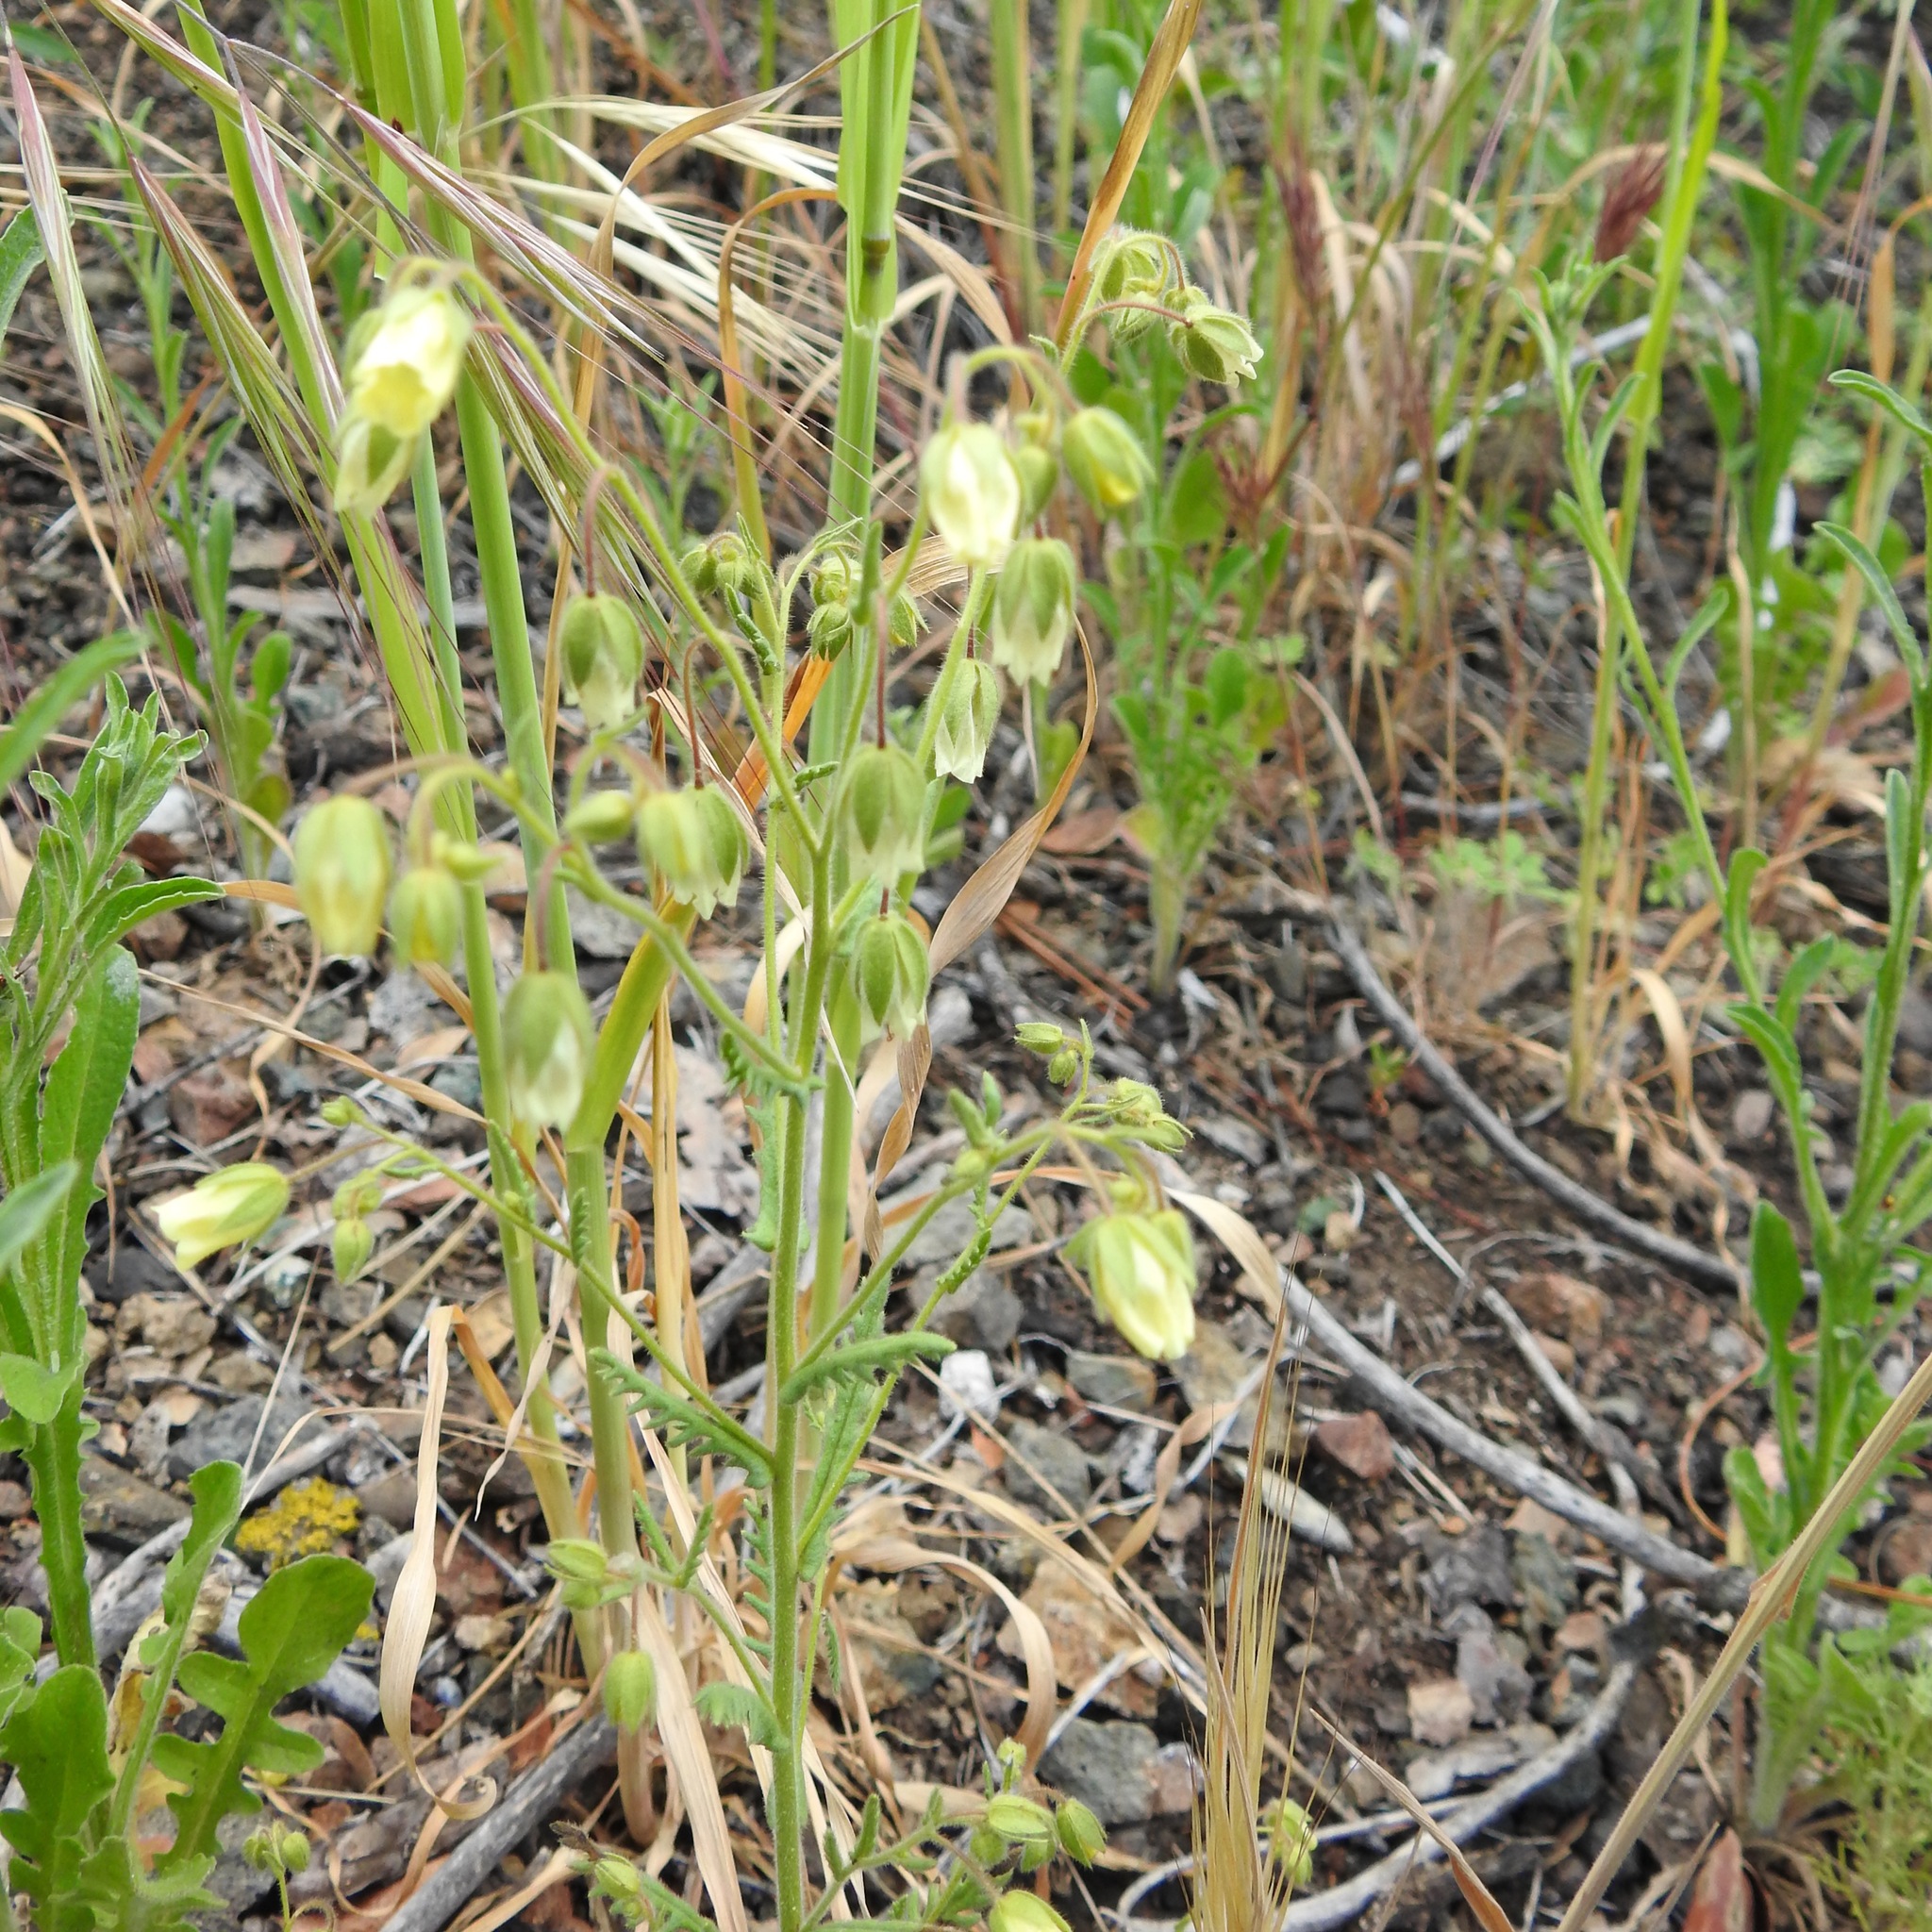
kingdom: Plantae
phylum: Tracheophyta
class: Magnoliopsida
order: Boraginales
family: Hydrophyllaceae
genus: Emmenanthe
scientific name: Emmenanthe penduliflora
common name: Whispering-bells
